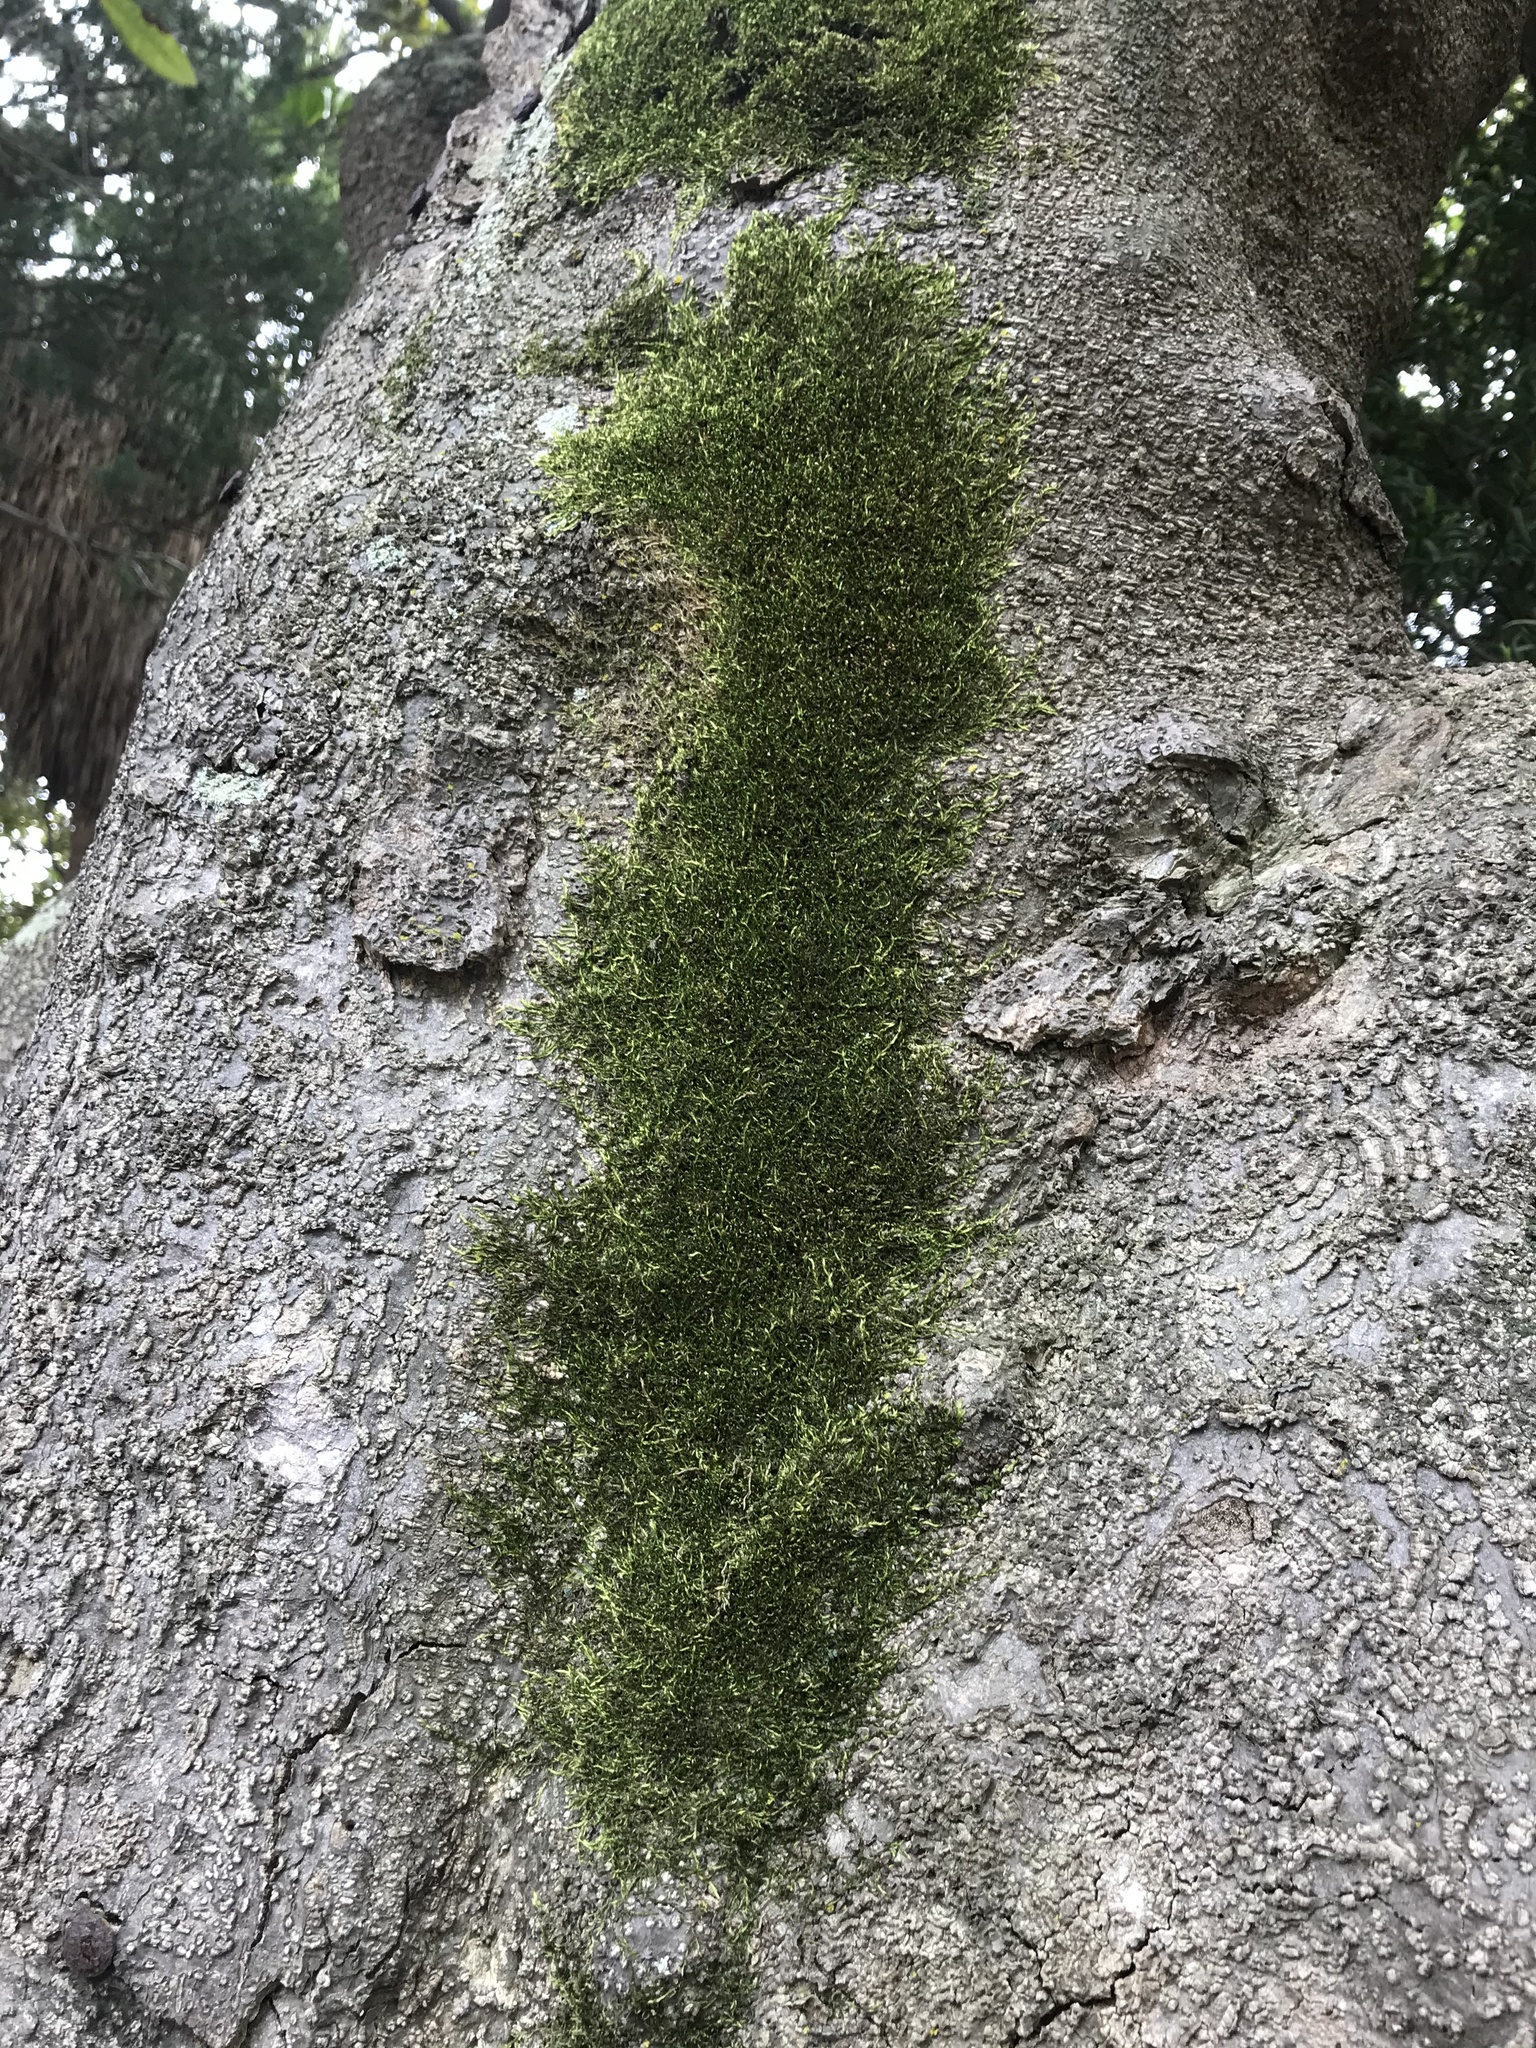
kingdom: Plantae
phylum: Bryophyta
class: Bryopsida
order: Hypnales
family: Fabroniaceae
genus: Fabronia
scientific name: Fabronia wageri
